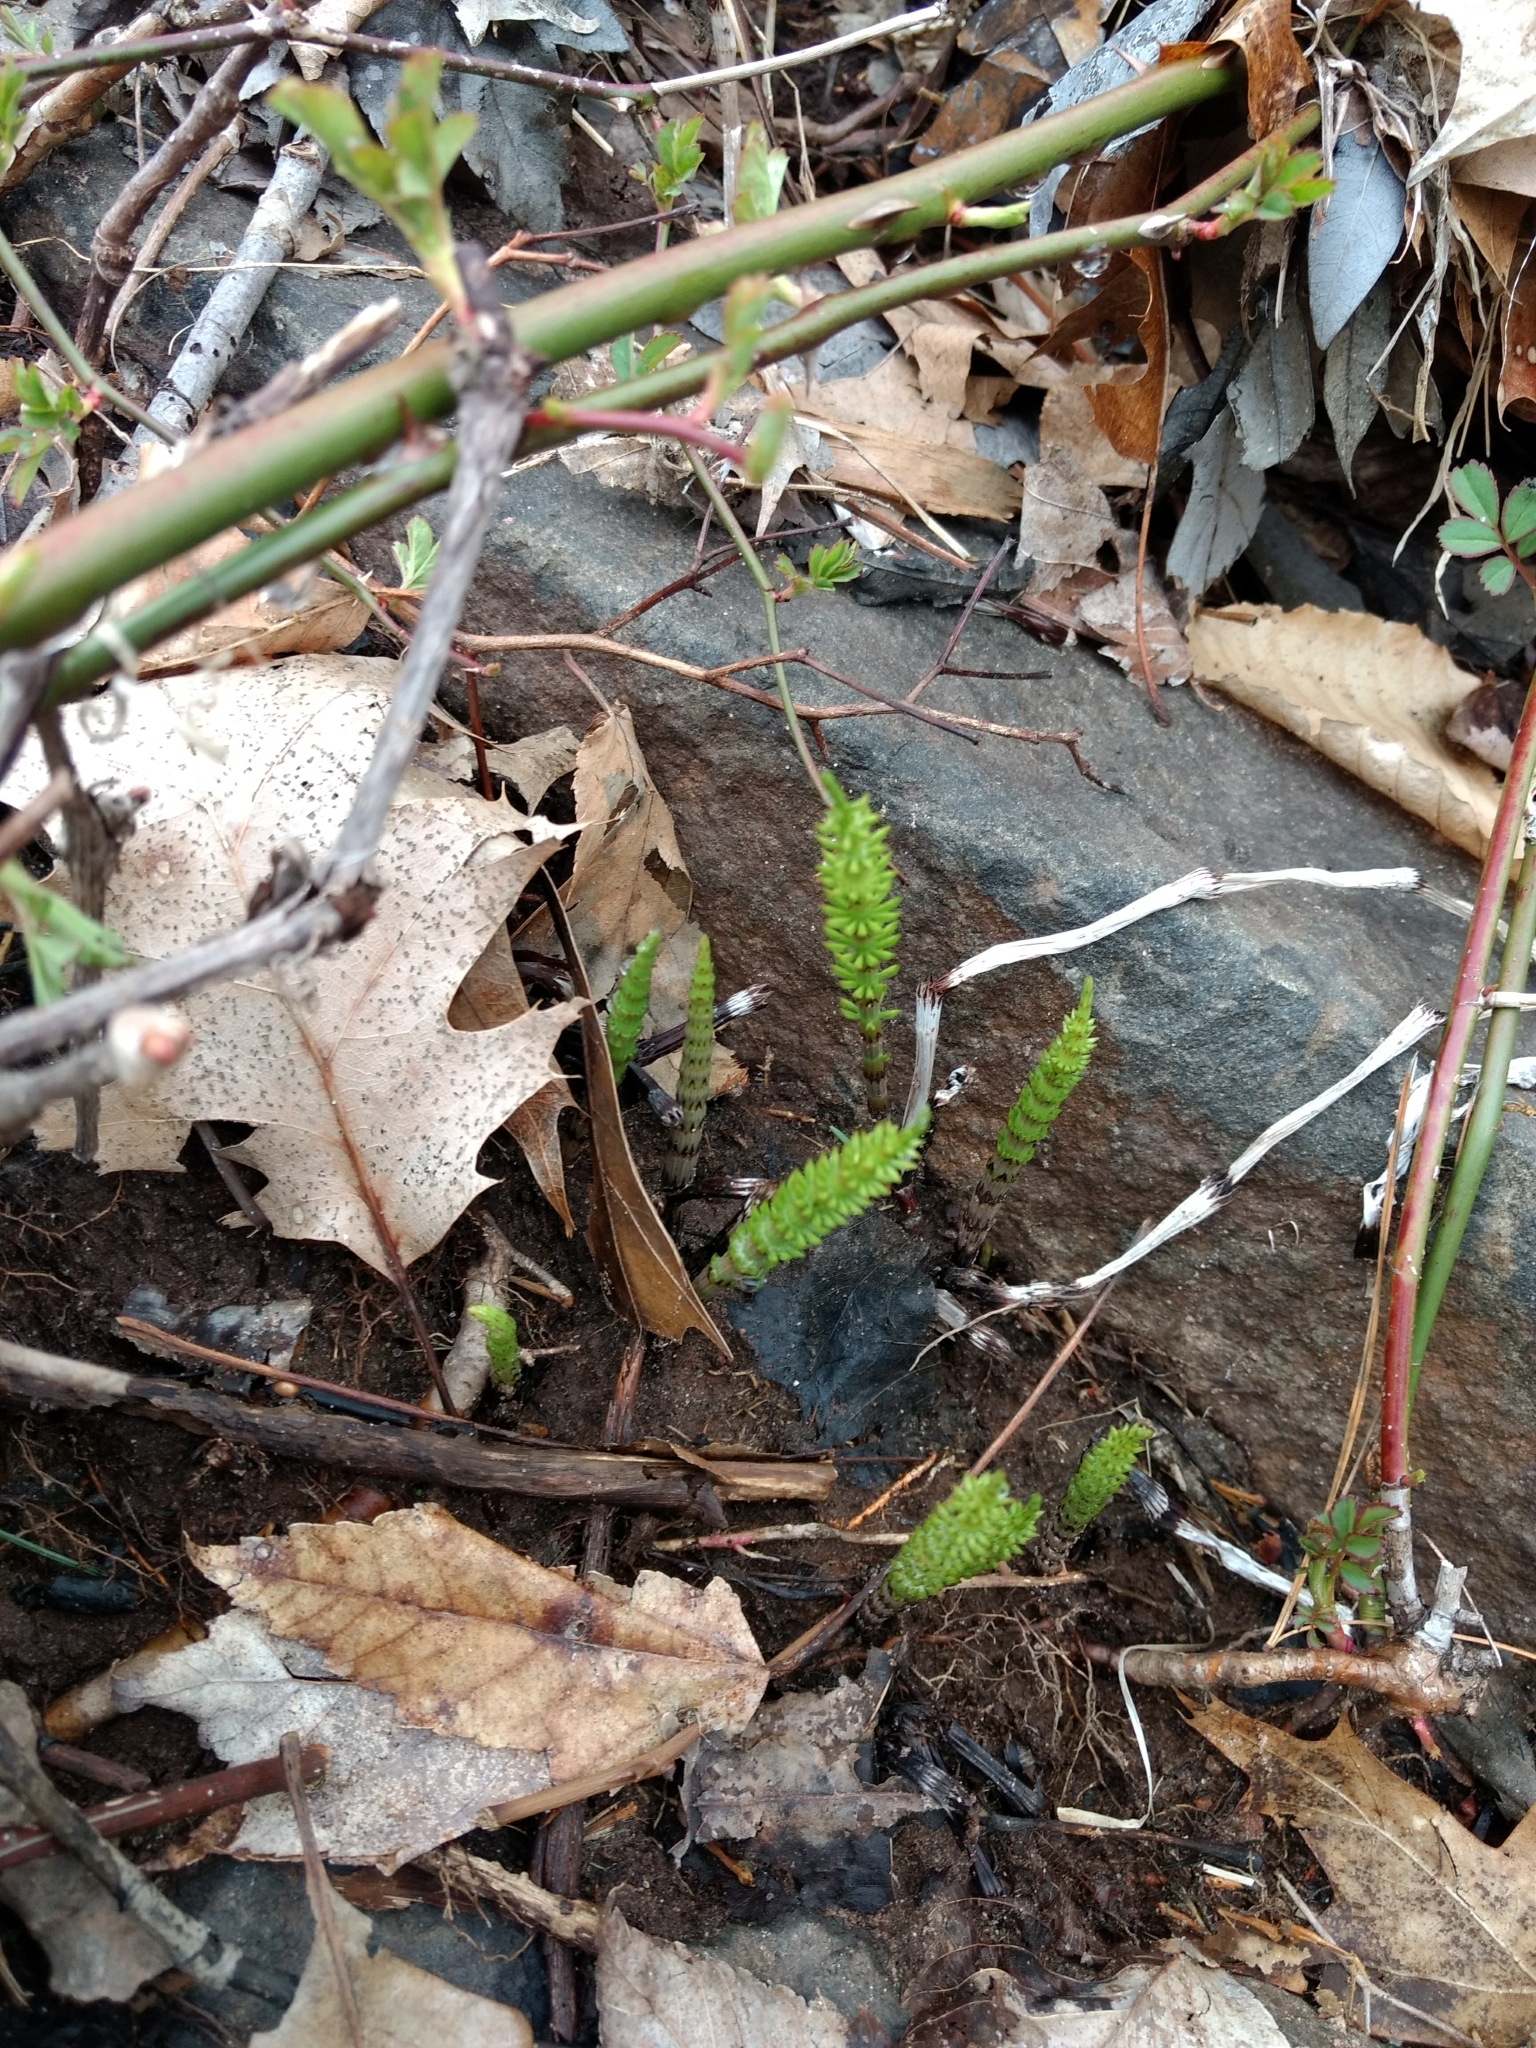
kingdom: Plantae
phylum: Tracheophyta
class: Polypodiopsida
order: Equisetales
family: Equisetaceae
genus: Equisetum
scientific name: Equisetum arvense
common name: Field horsetail
